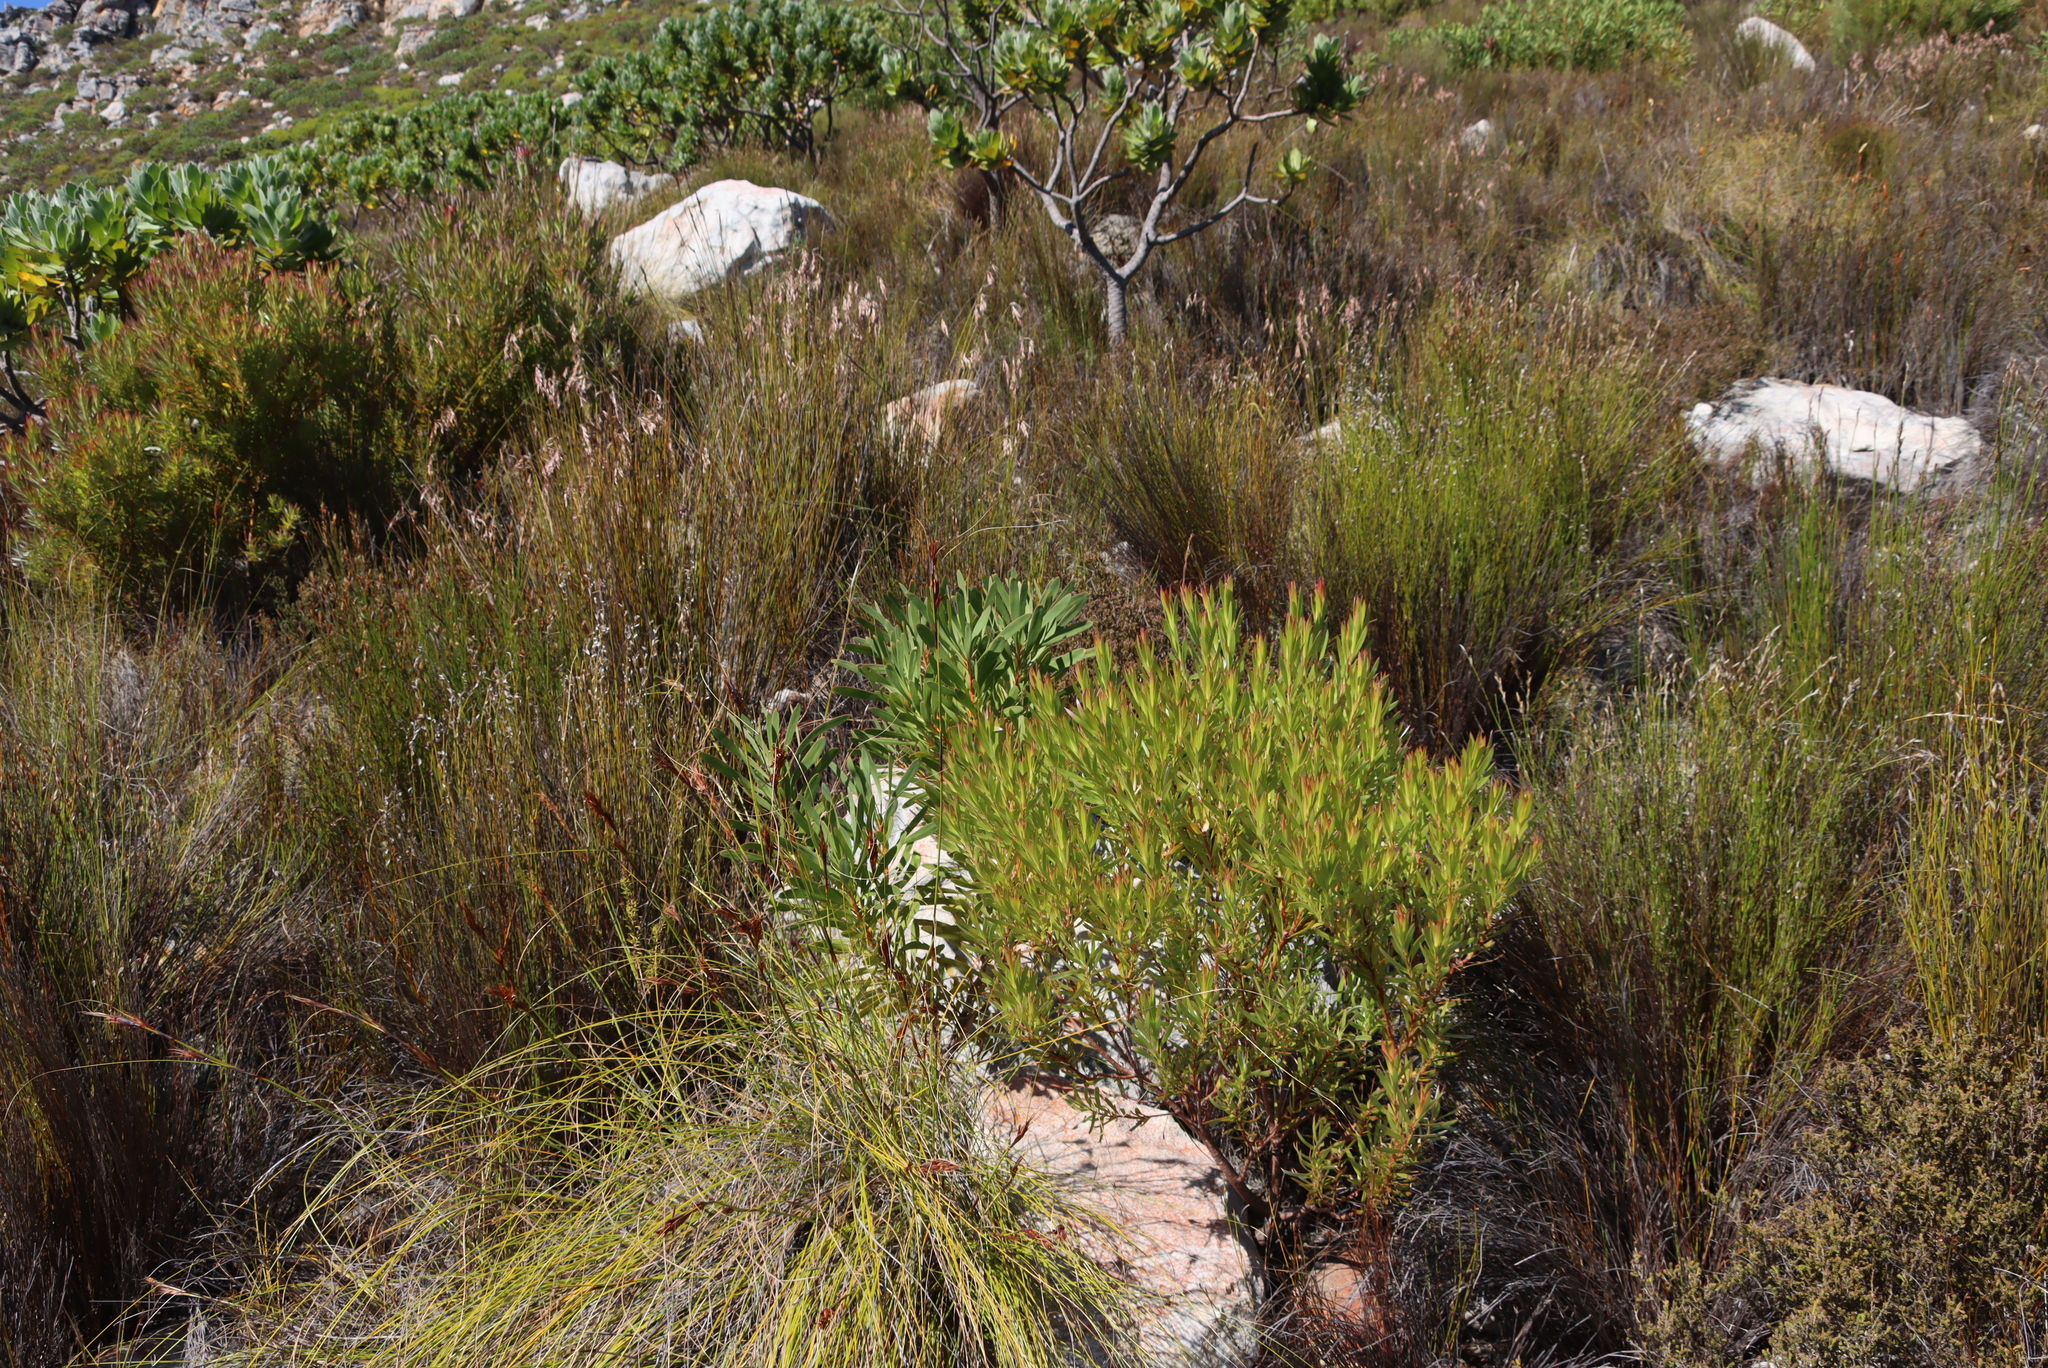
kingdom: Plantae
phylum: Tracheophyta
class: Magnoliopsida
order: Proteales
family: Proteaceae
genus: Protea
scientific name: Protea repens
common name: Sugarbush
